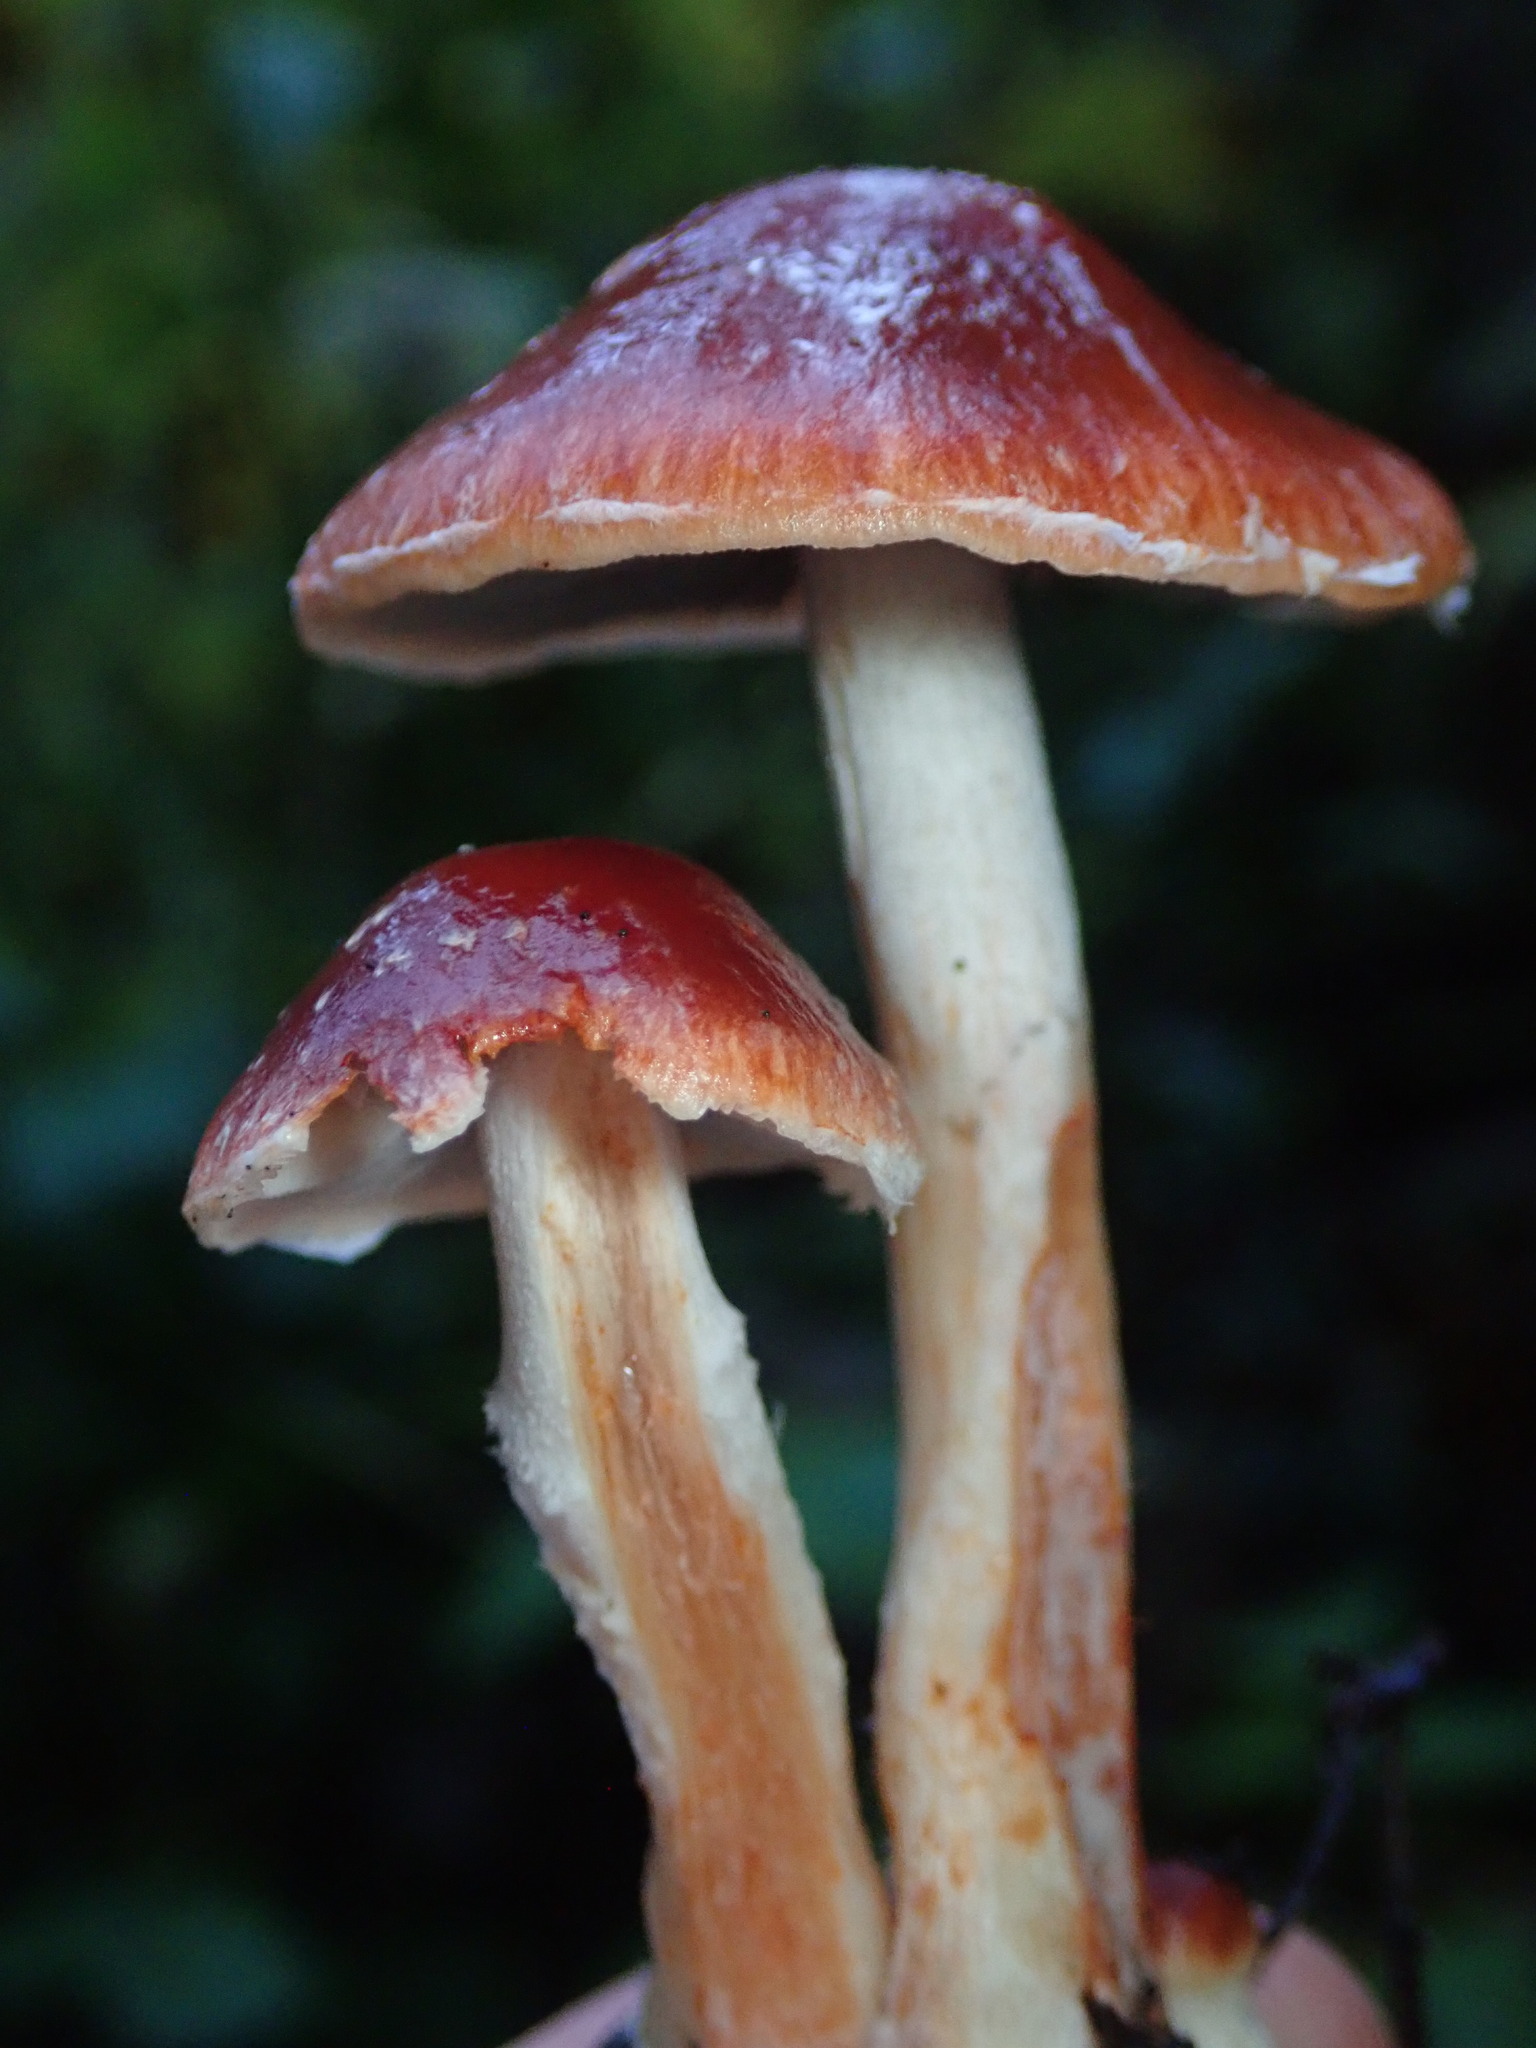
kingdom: Fungi
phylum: Basidiomycota
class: Agaricomycetes
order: Agaricales
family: Strophariaceae
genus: Leratiomyces
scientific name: Leratiomyces ceres
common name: Redlead roundhead
